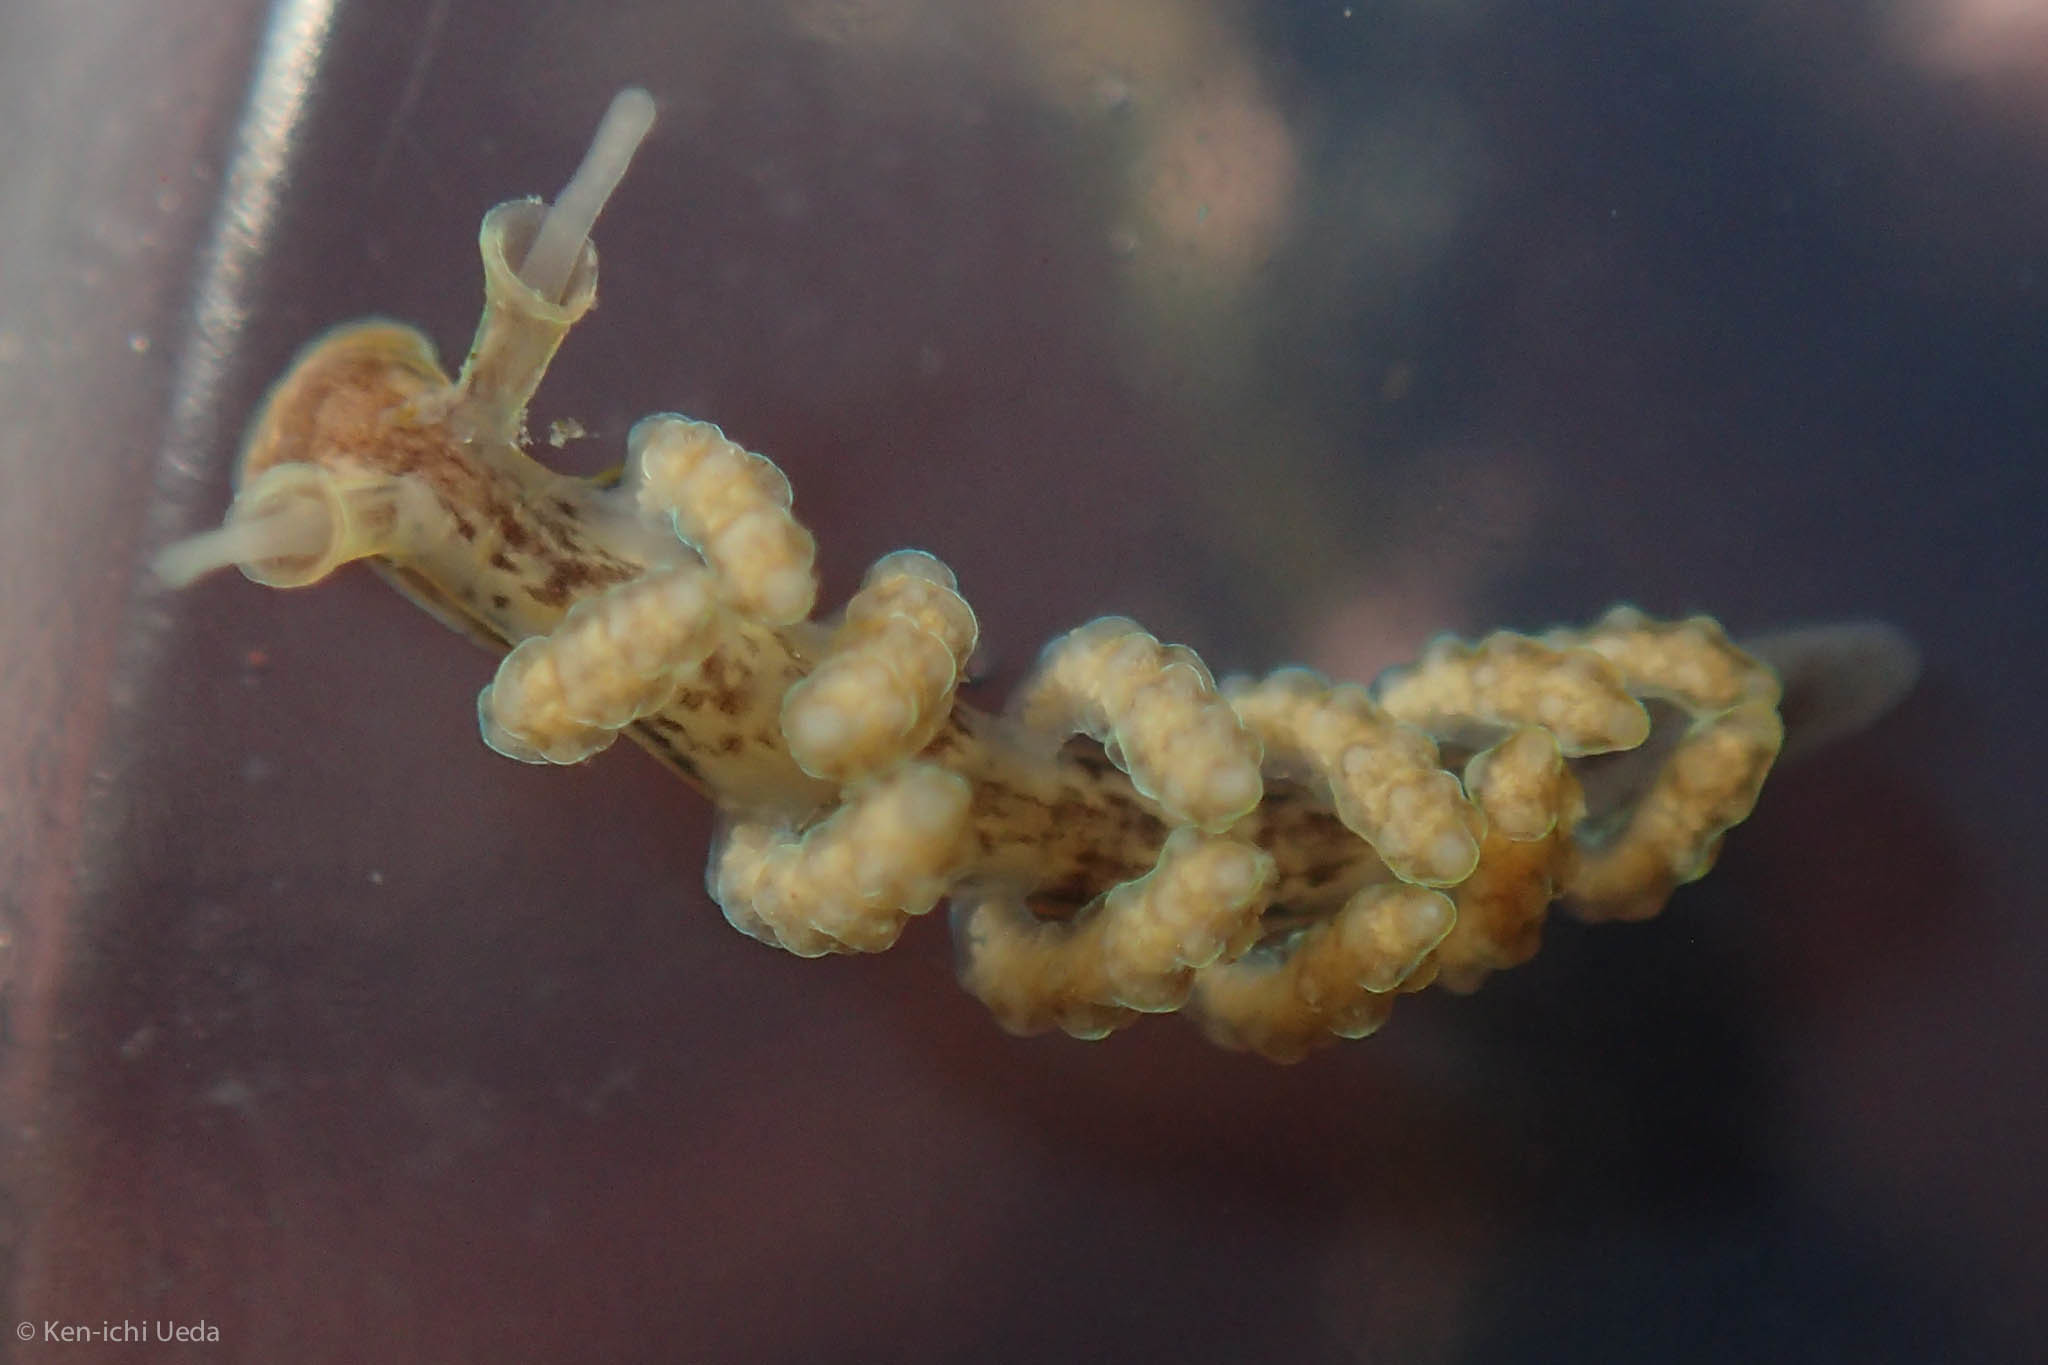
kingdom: Animalia
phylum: Mollusca
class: Gastropoda
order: Nudibranchia
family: Dotidae
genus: Doto
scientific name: Doto columbiana
